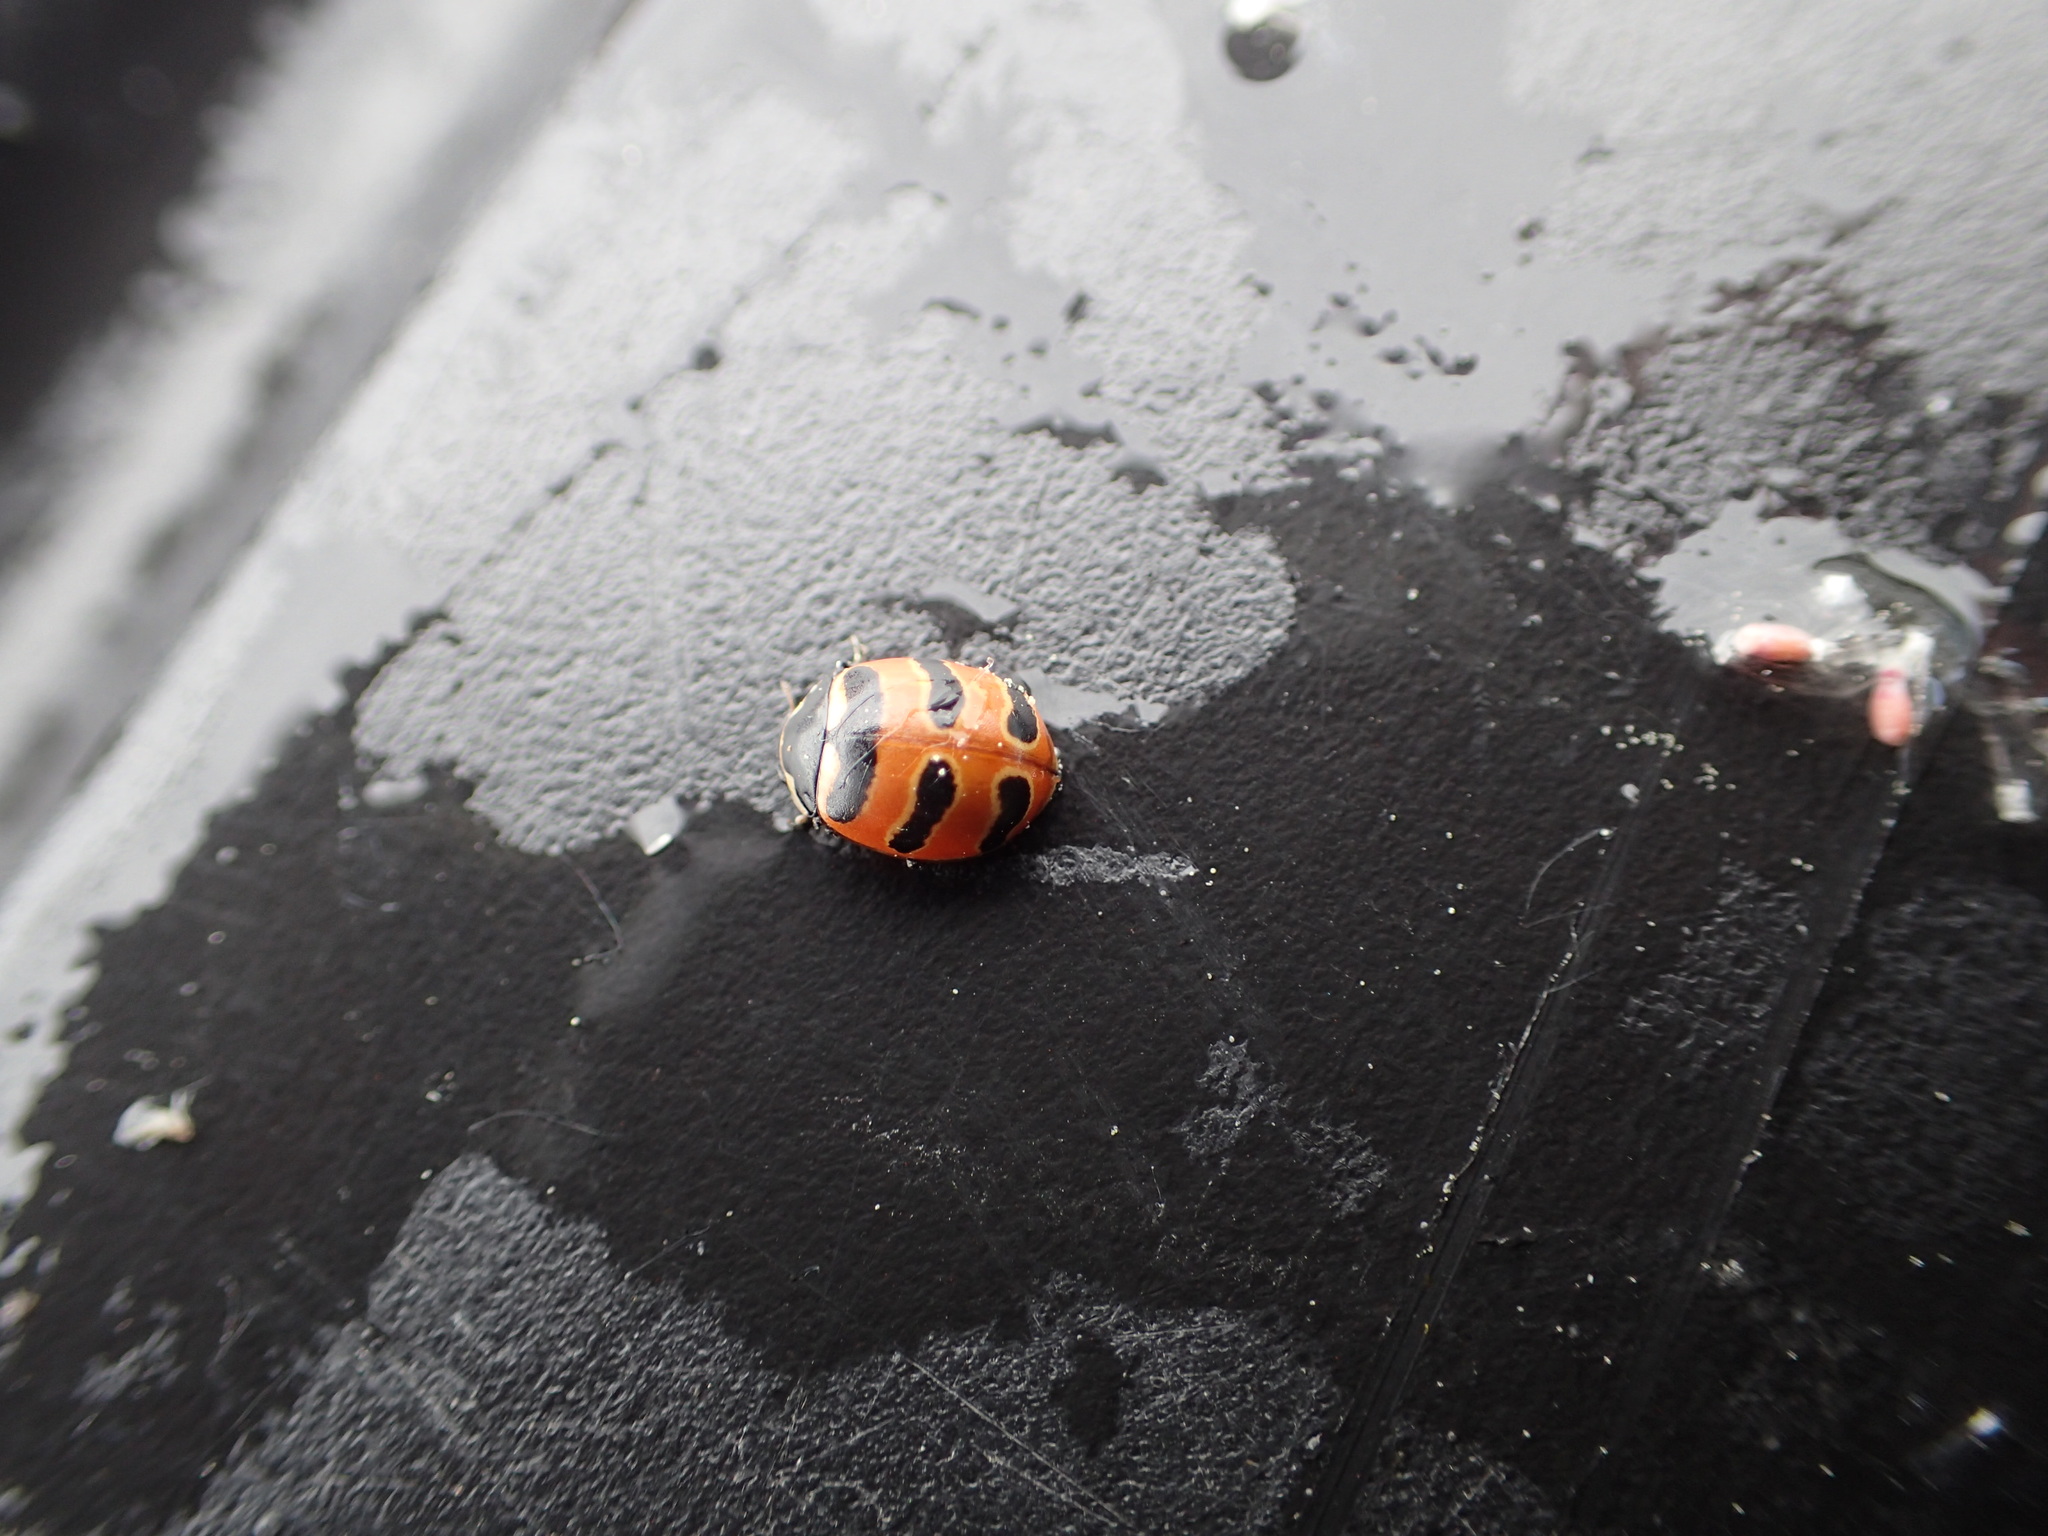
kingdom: Animalia
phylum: Arthropoda
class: Insecta
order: Coleoptera
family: Coccinellidae
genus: Coccinella
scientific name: Coccinella trifasciata
